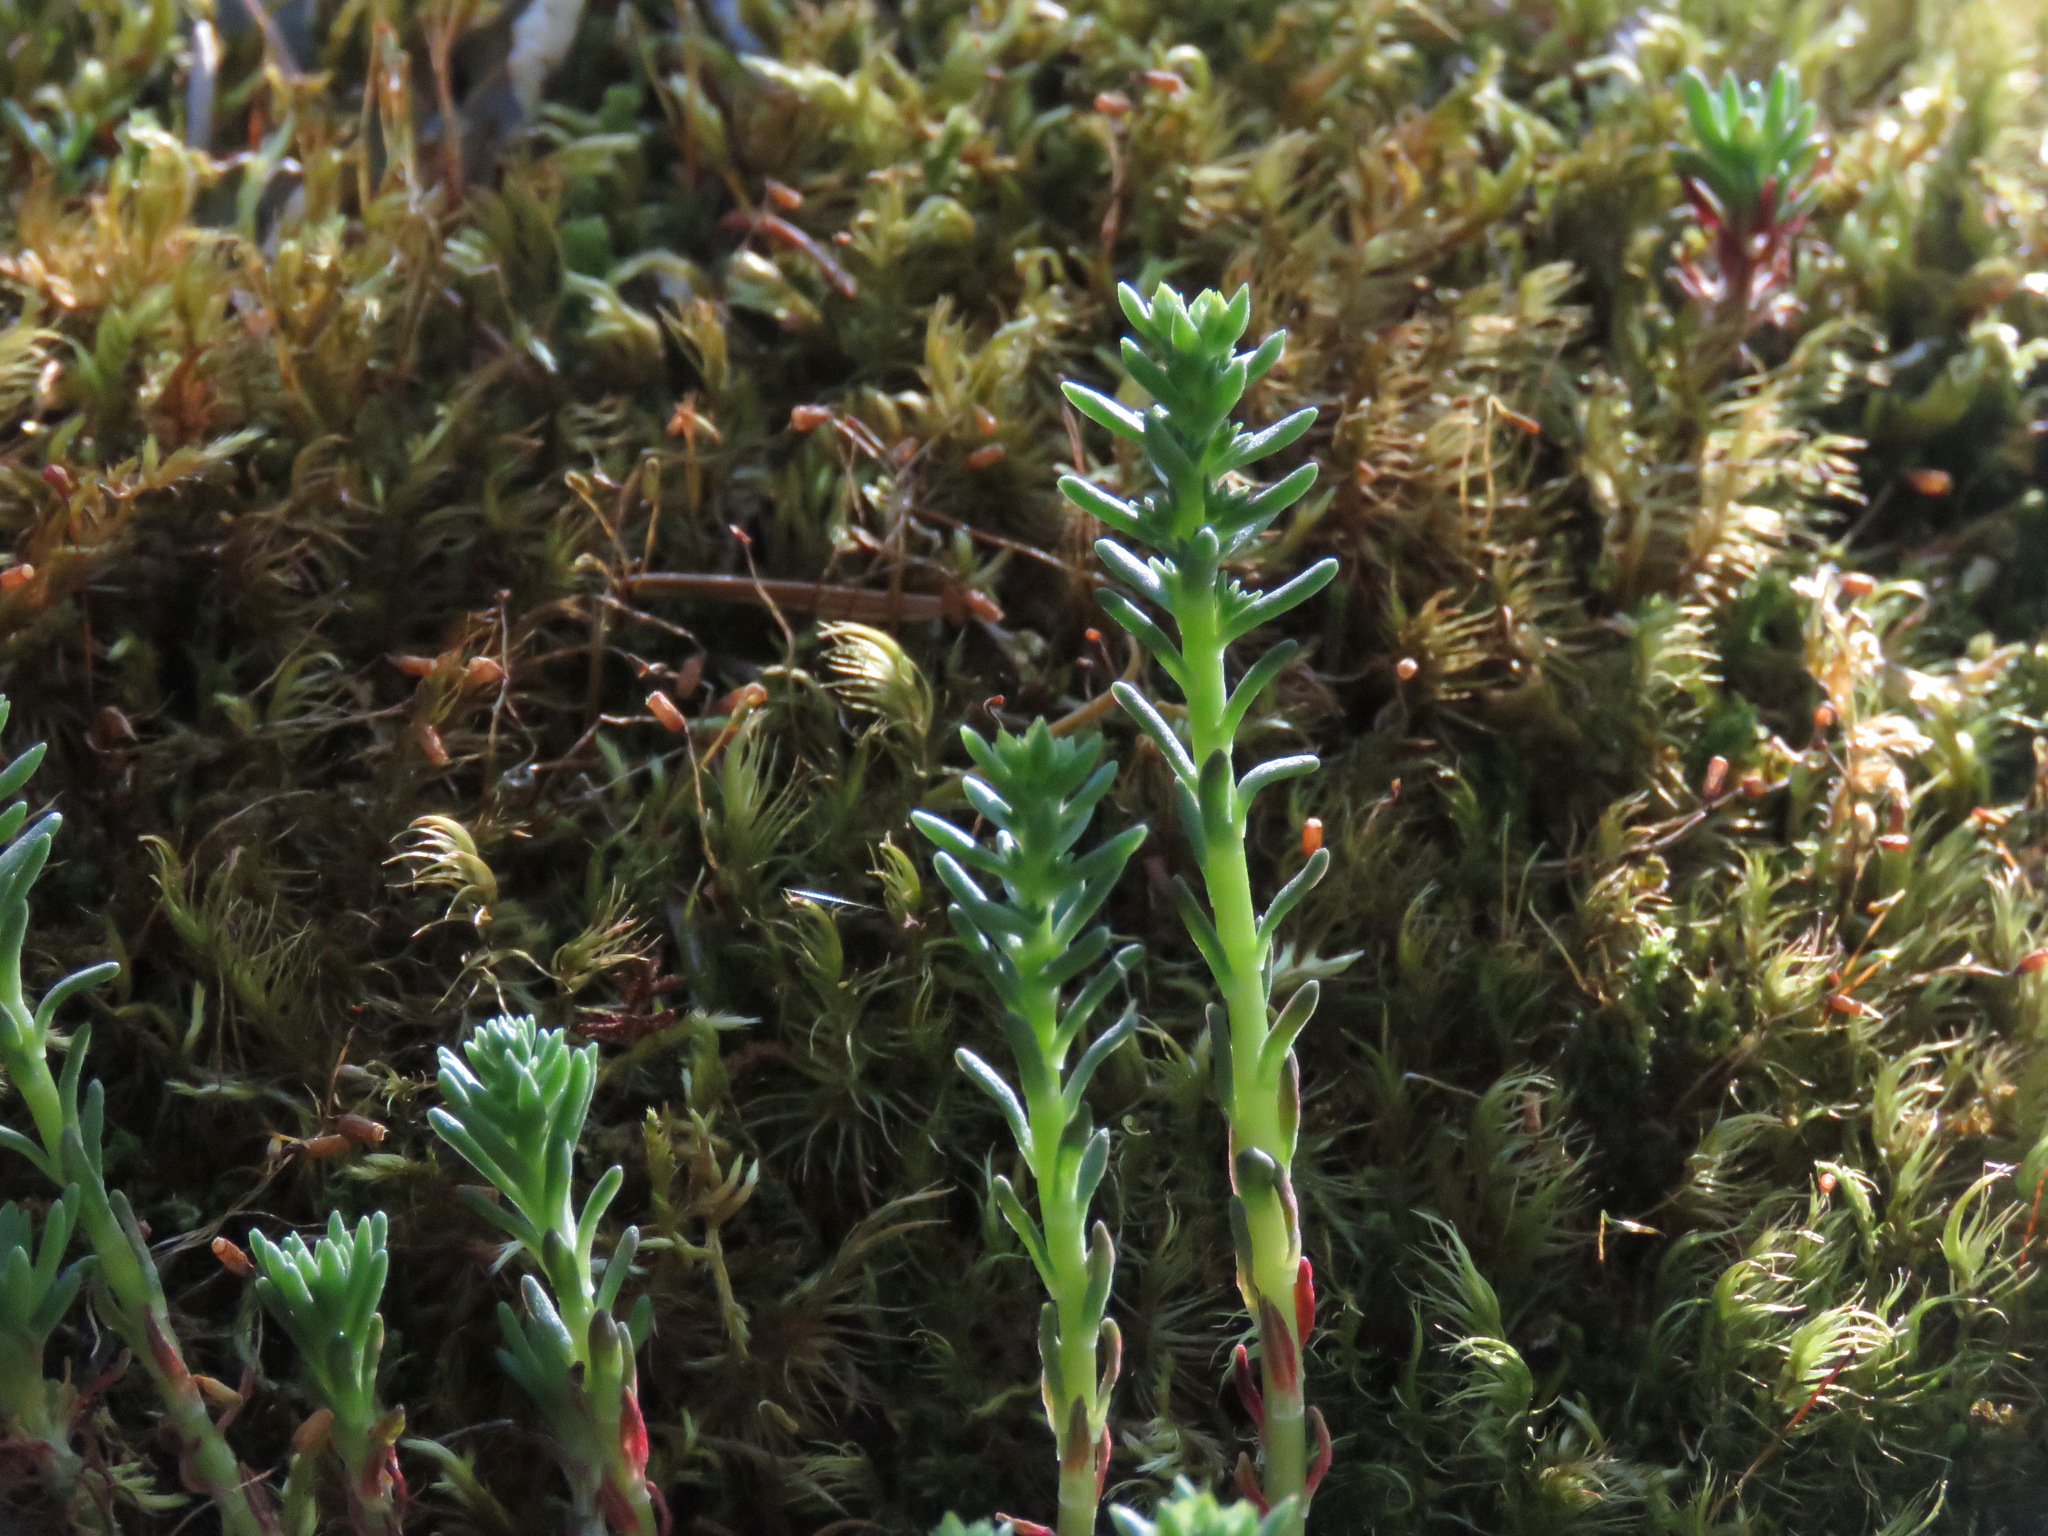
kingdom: Plantae
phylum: Tracheophyta
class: Magnoliopsida
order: Saxifragales
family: Crassulaceae
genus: Sedum
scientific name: Sedum stenopetalum
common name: Narrow-petaled stonecrop
